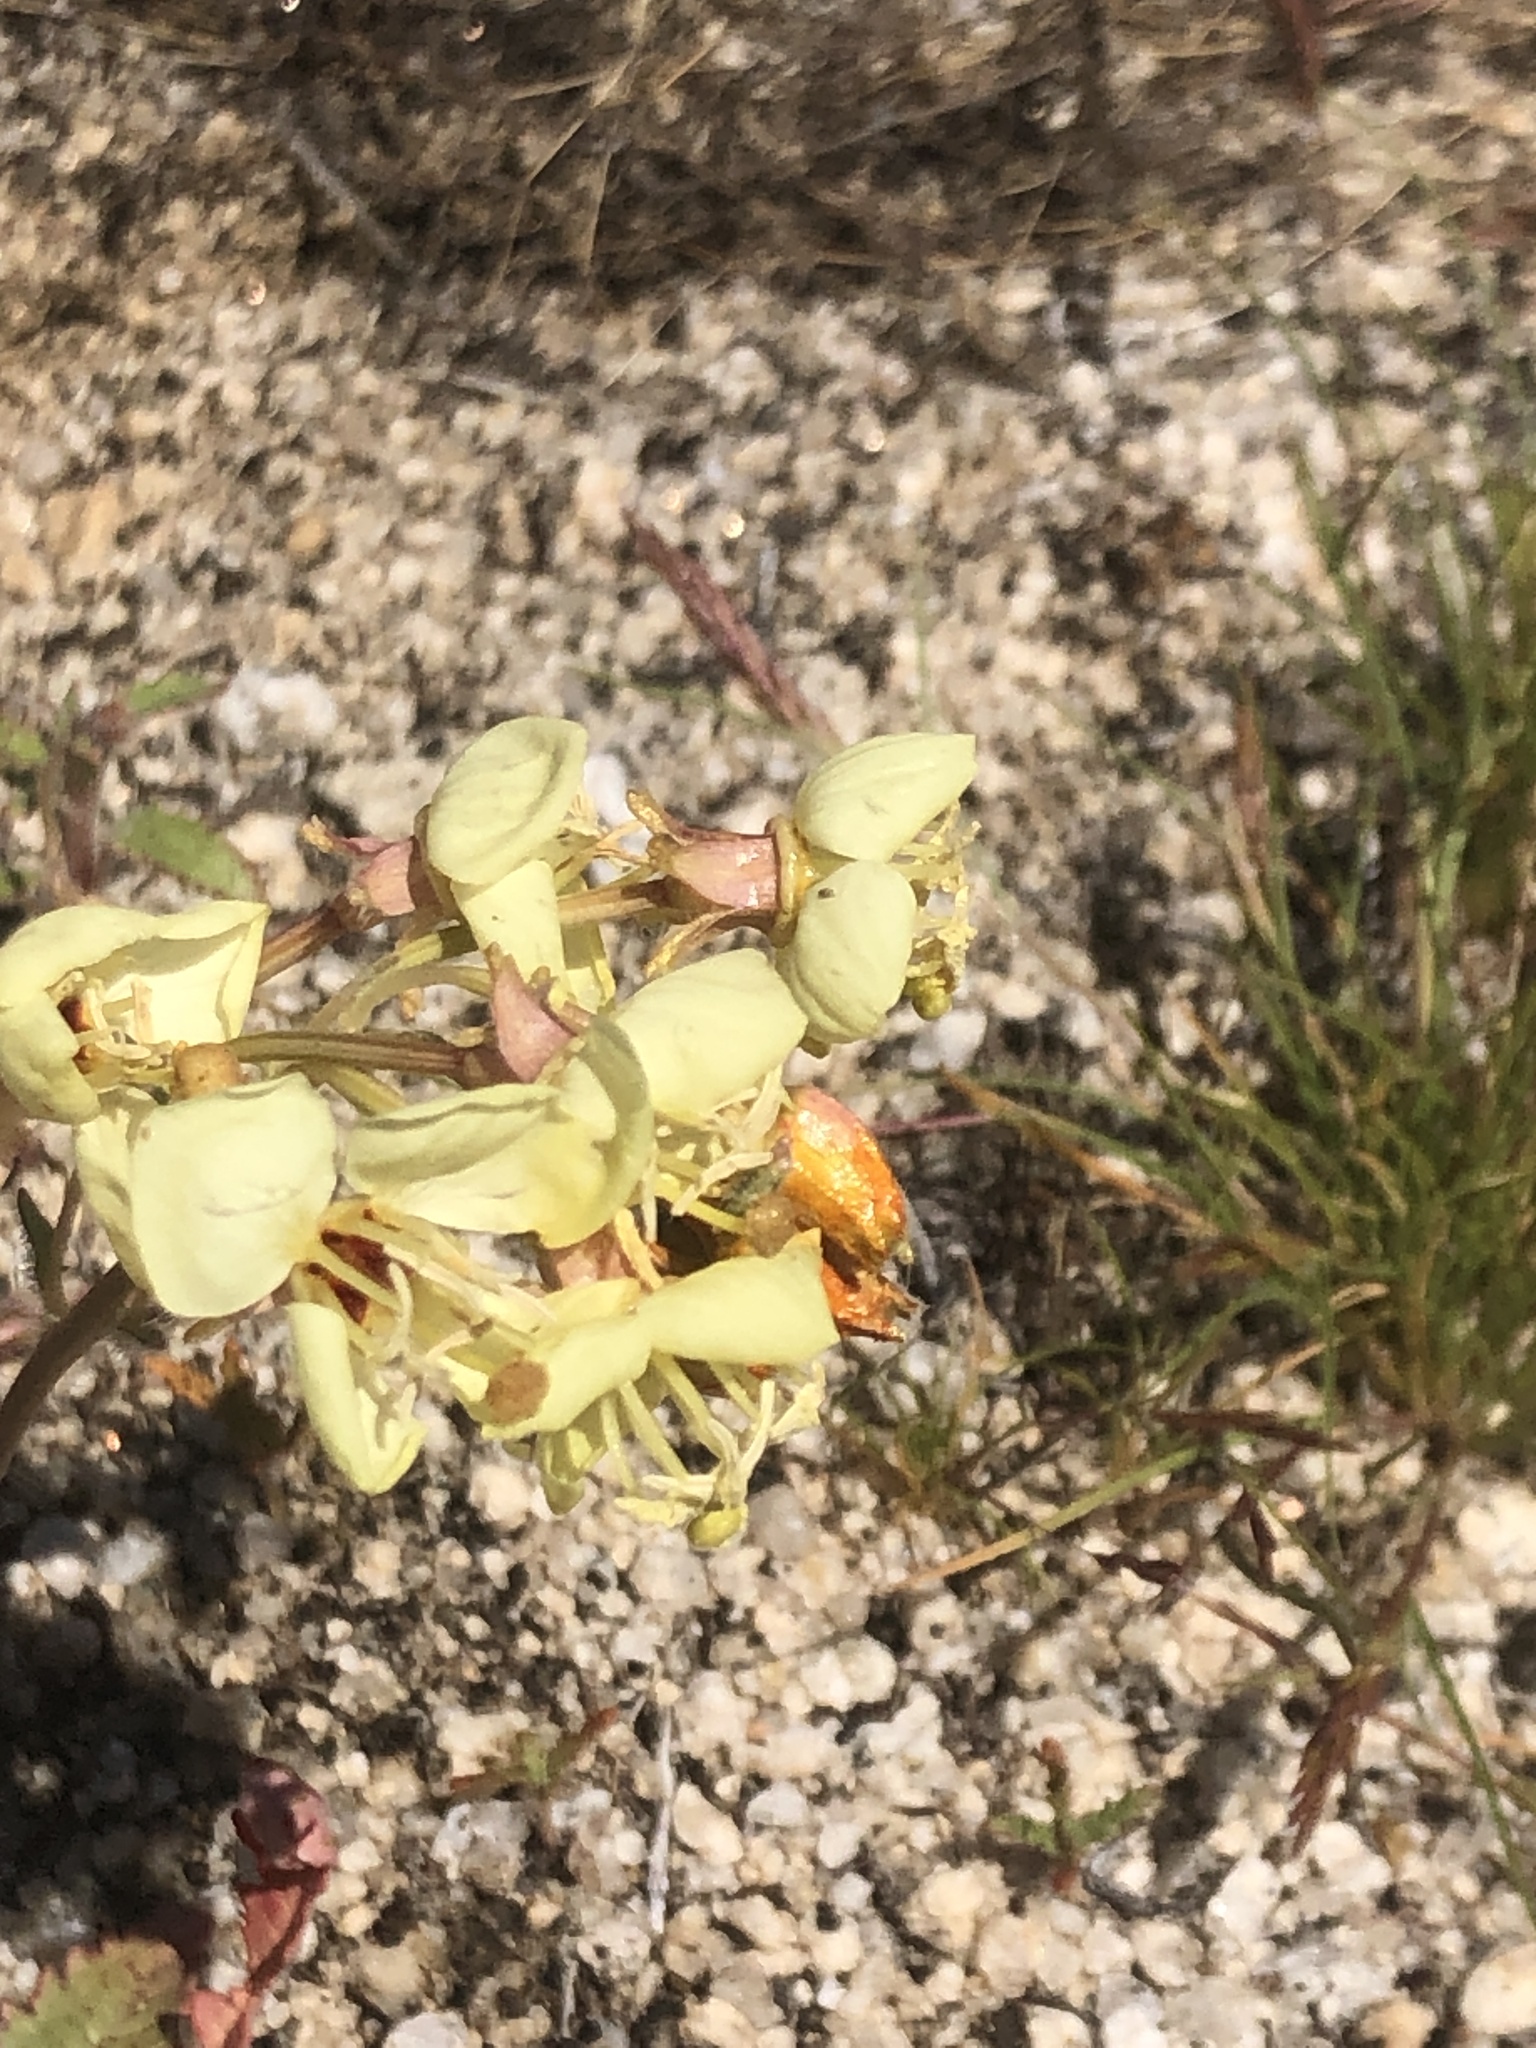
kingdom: Plantae
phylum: Tracheophyta
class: Magnoliopsida
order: Myrtales
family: Onagraceae
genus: Chylismia
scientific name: Chylismia claviformis
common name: Browneyes
